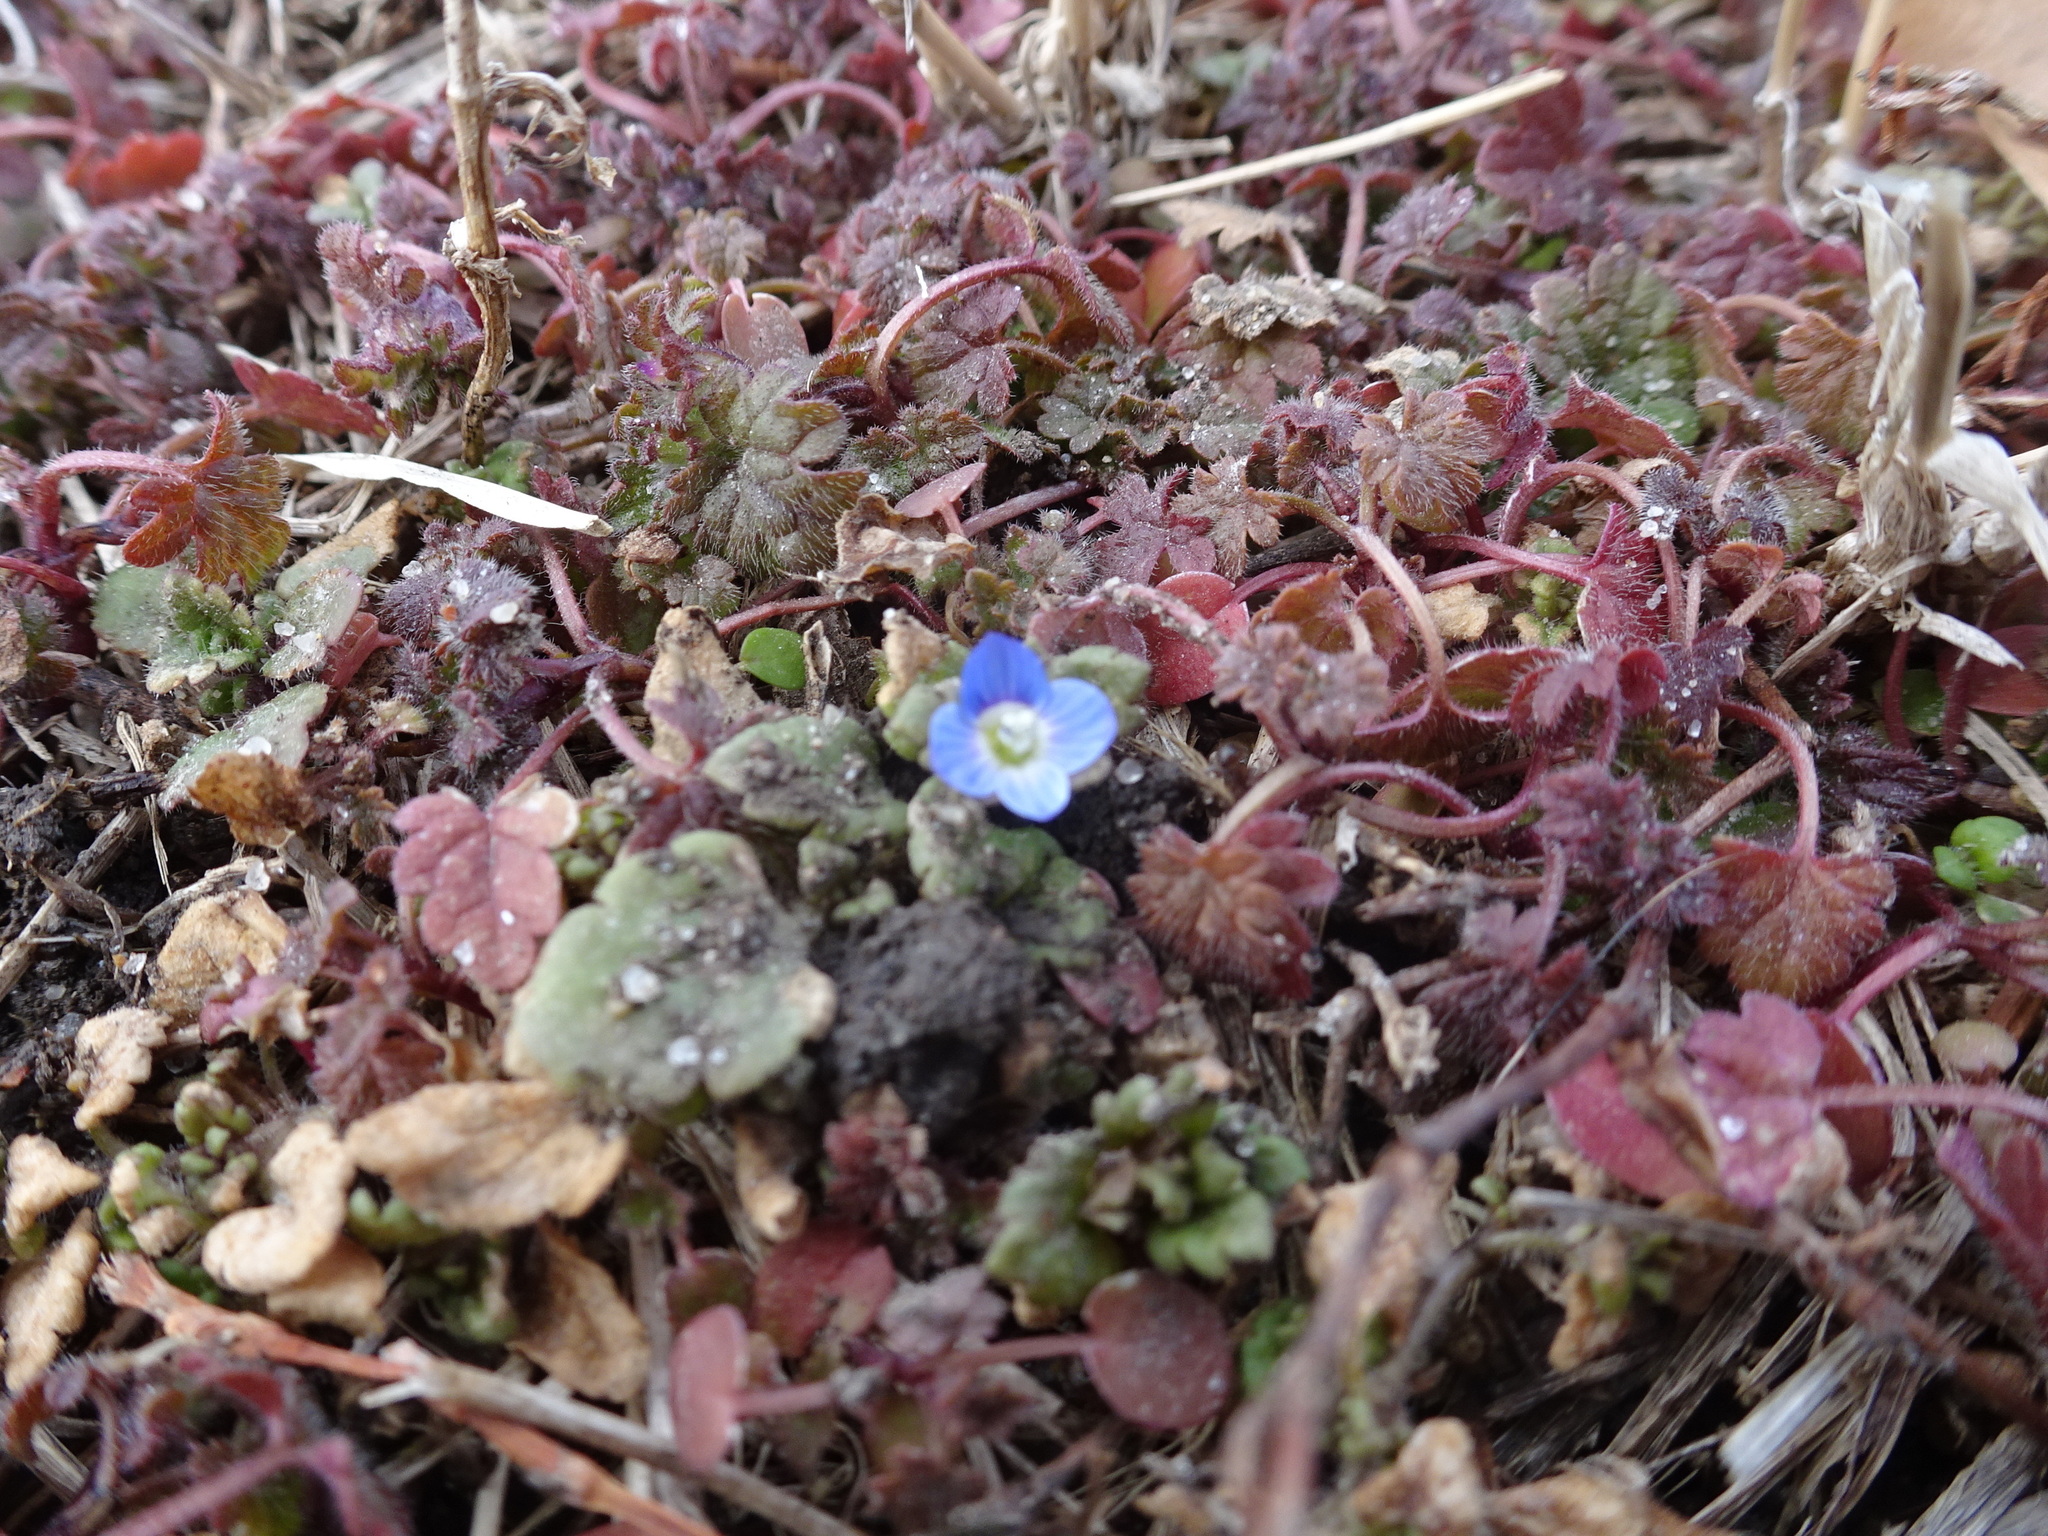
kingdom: Plantae
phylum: Tracheophyta
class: Magnoliopsida
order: Lamiales
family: Plantaginaceae
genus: Veronica
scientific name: Veronica polita
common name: Grey field-speedwell
